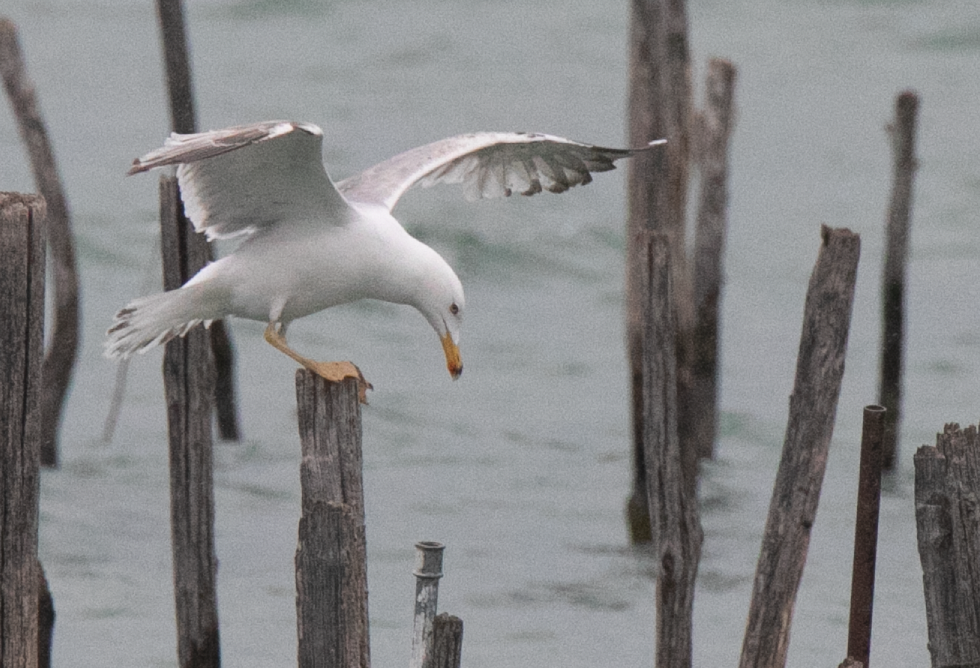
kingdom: Animalia
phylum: Chordata
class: Aves
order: Charadriiformes
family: Laridae
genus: Larus
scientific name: Larus michahellis
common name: Yellow-legged gull
